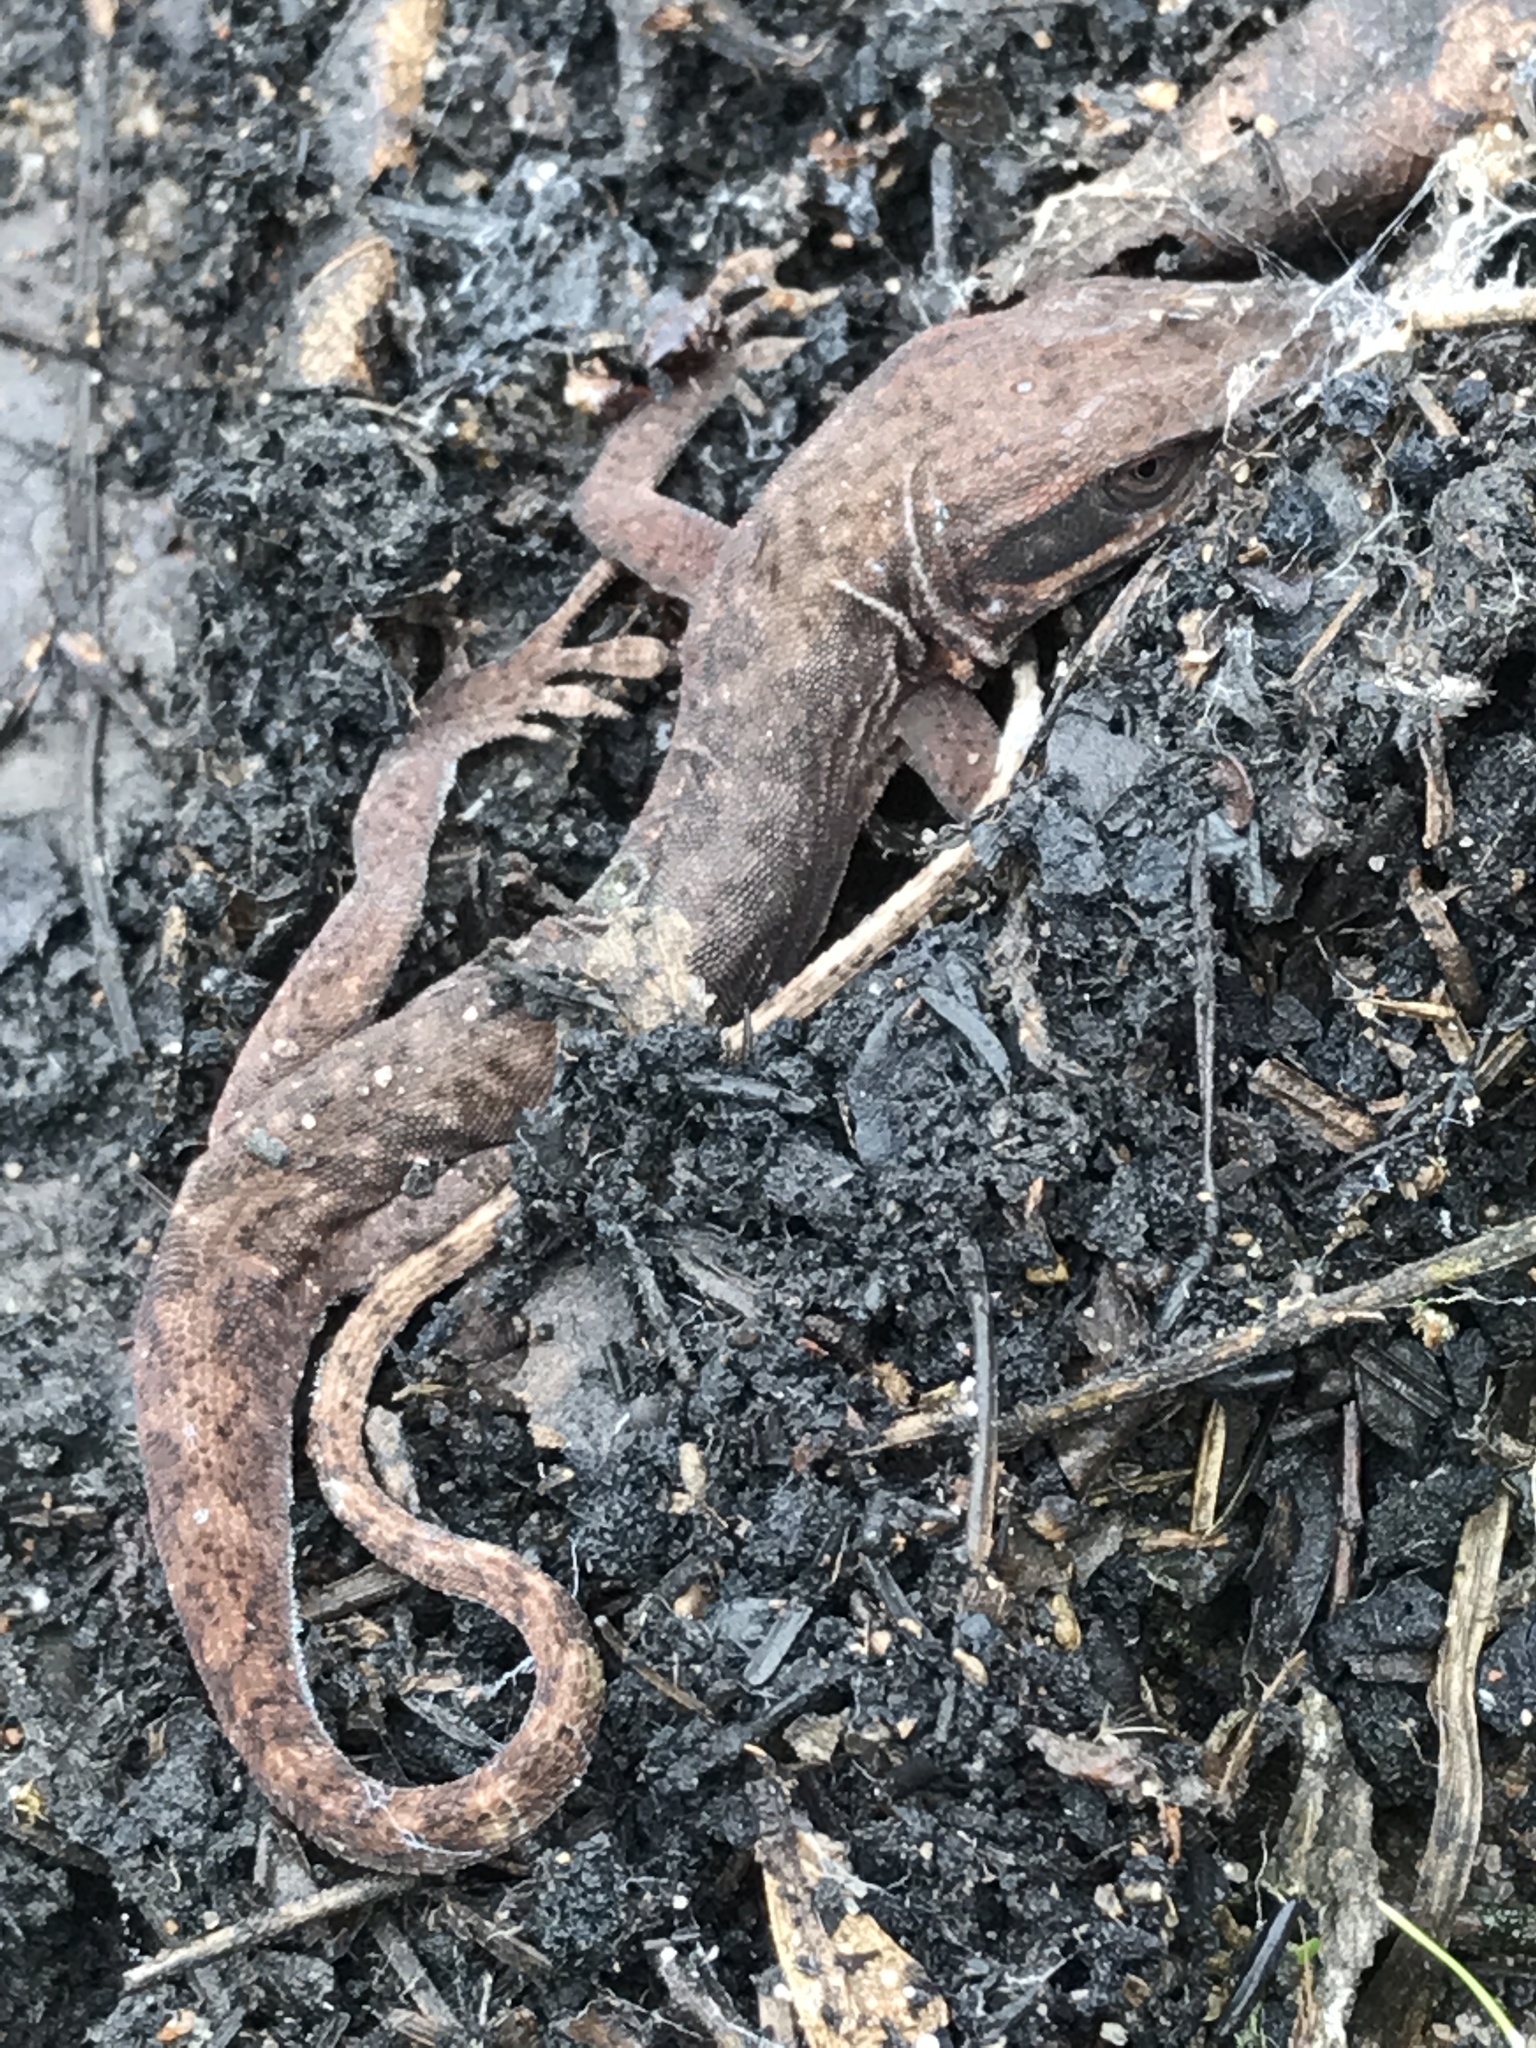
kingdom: Animalia
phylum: Chordata
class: Squamata
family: Dactyloidae
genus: Anolis
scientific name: Anolis carolinensis
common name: Green anole
